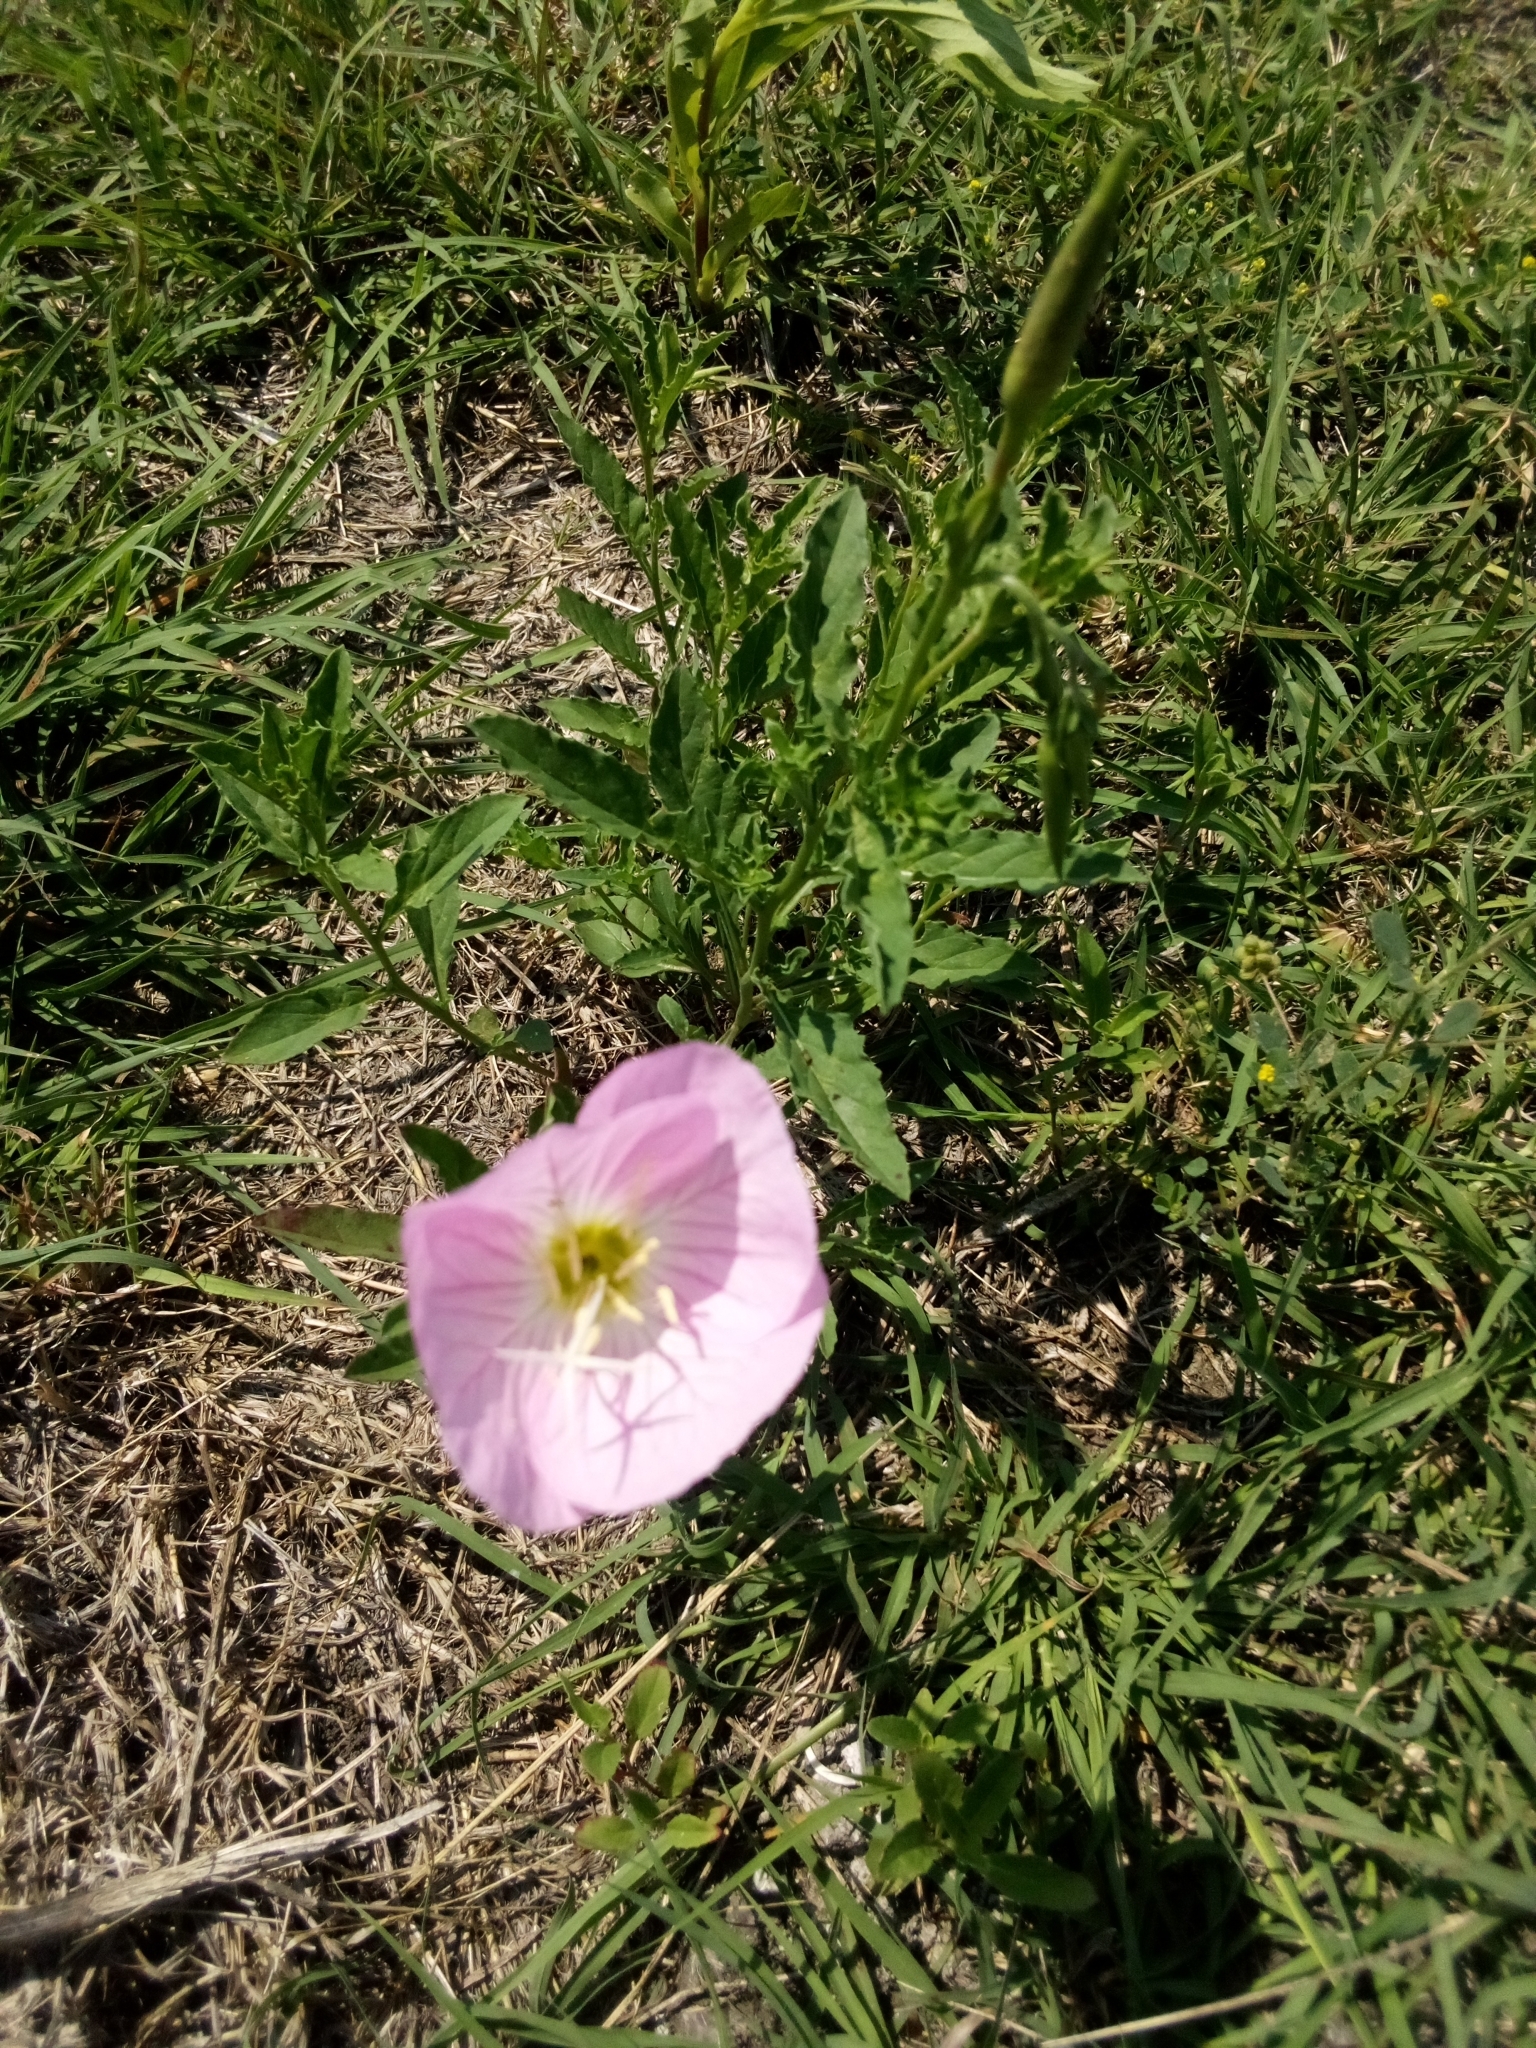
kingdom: Plantae
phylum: Tracheophyta
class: Magnoliopsida
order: Myrtales
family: Onagraceae
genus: Oenothera
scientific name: Oenothera speciosa
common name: White evening-primrose
